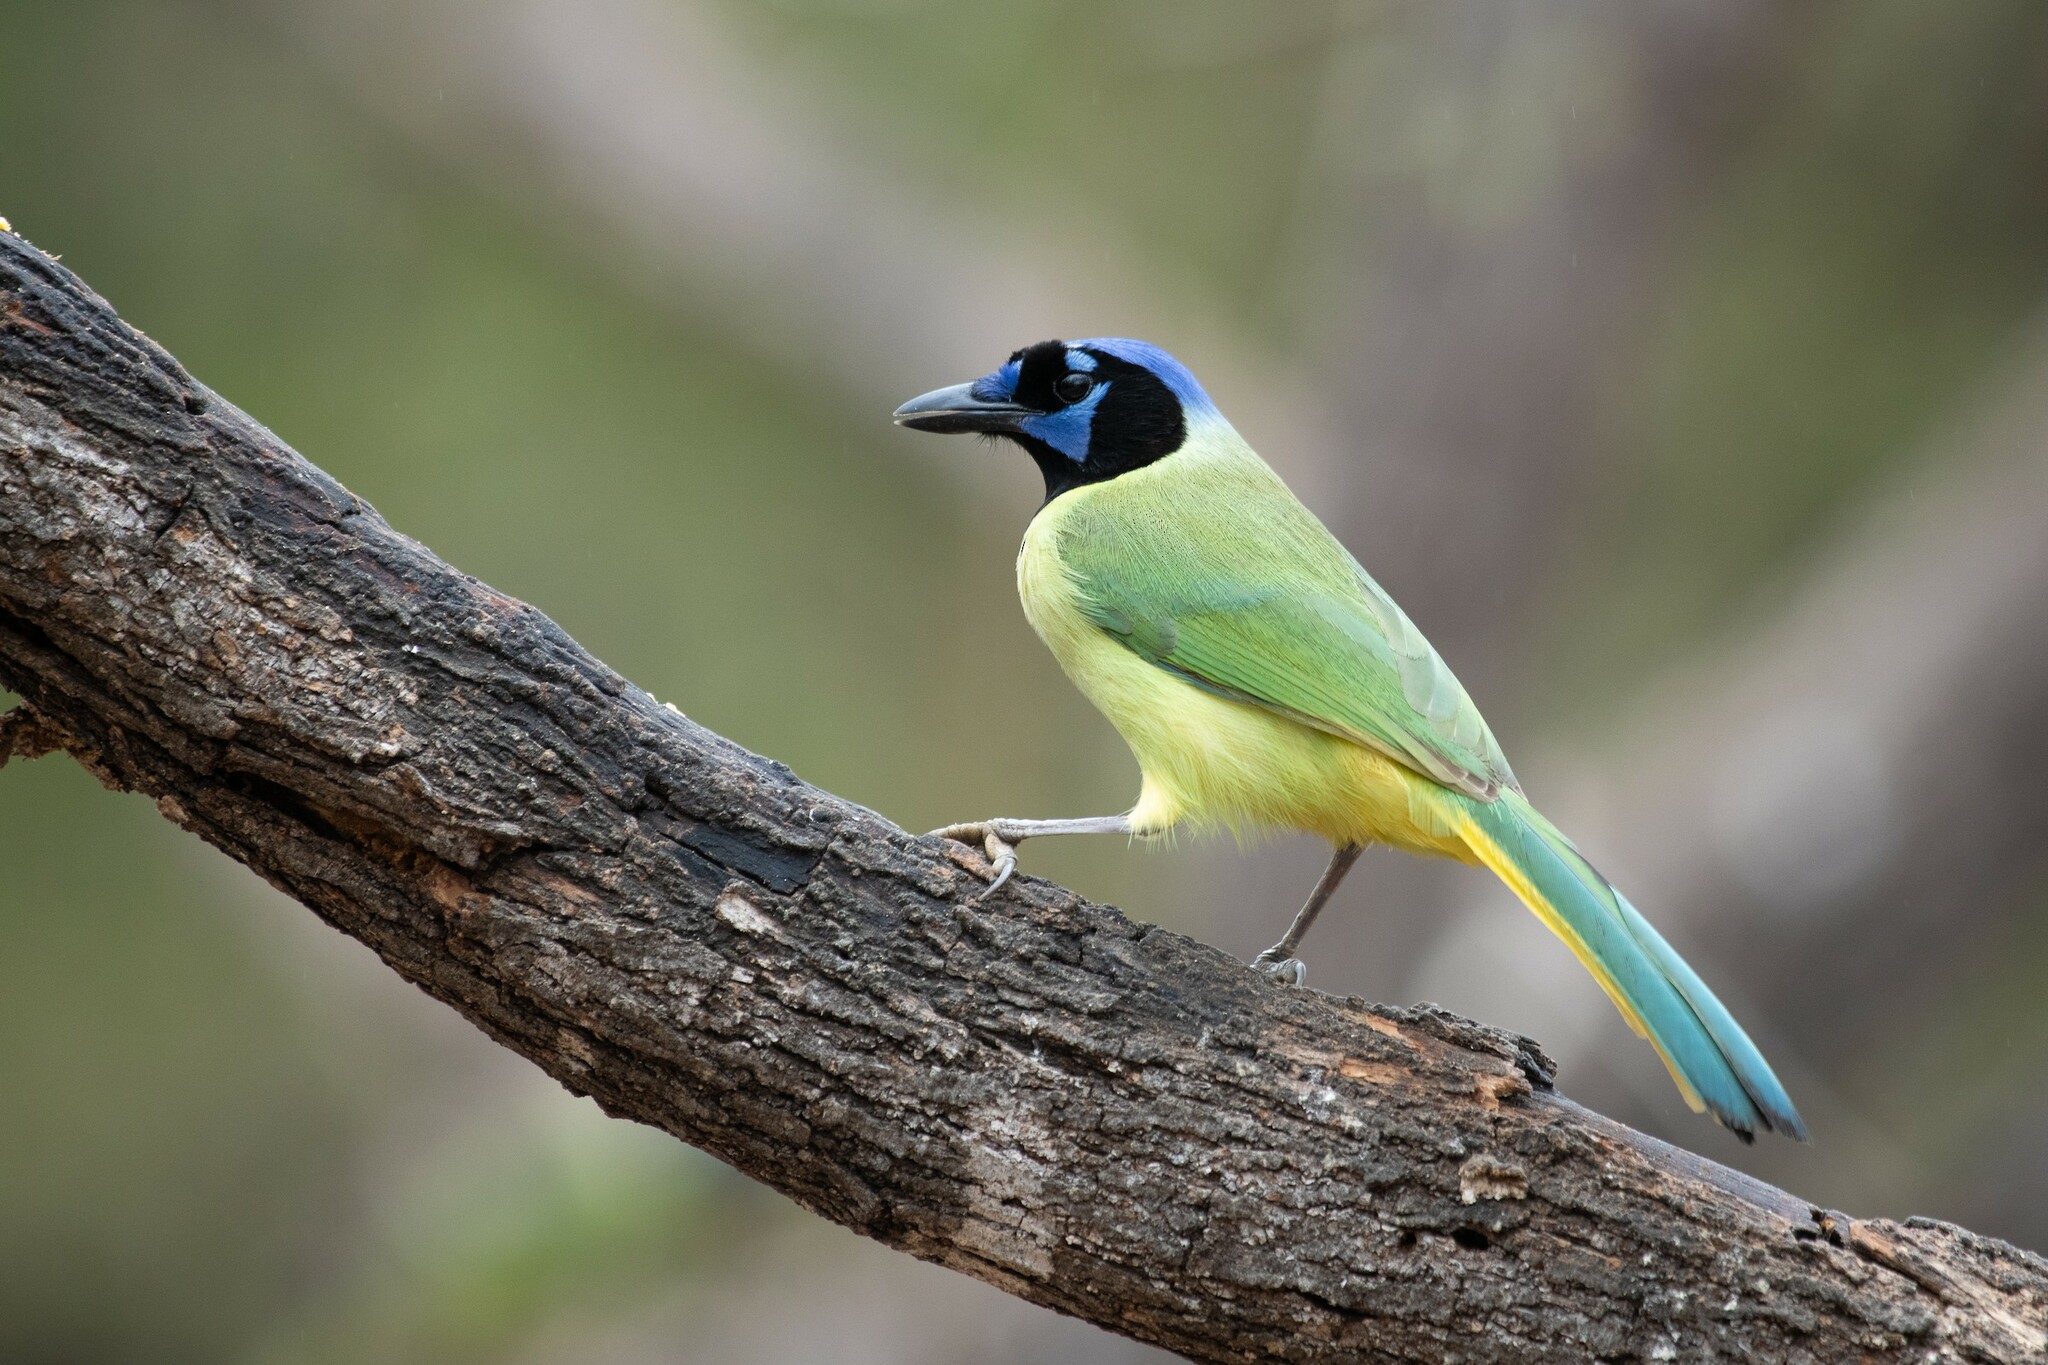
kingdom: Animalia
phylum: Chordata
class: Aves
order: Passeriformes
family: Corvidae
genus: Cyanocorax
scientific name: Cyanocorax yncas
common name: Green jay
